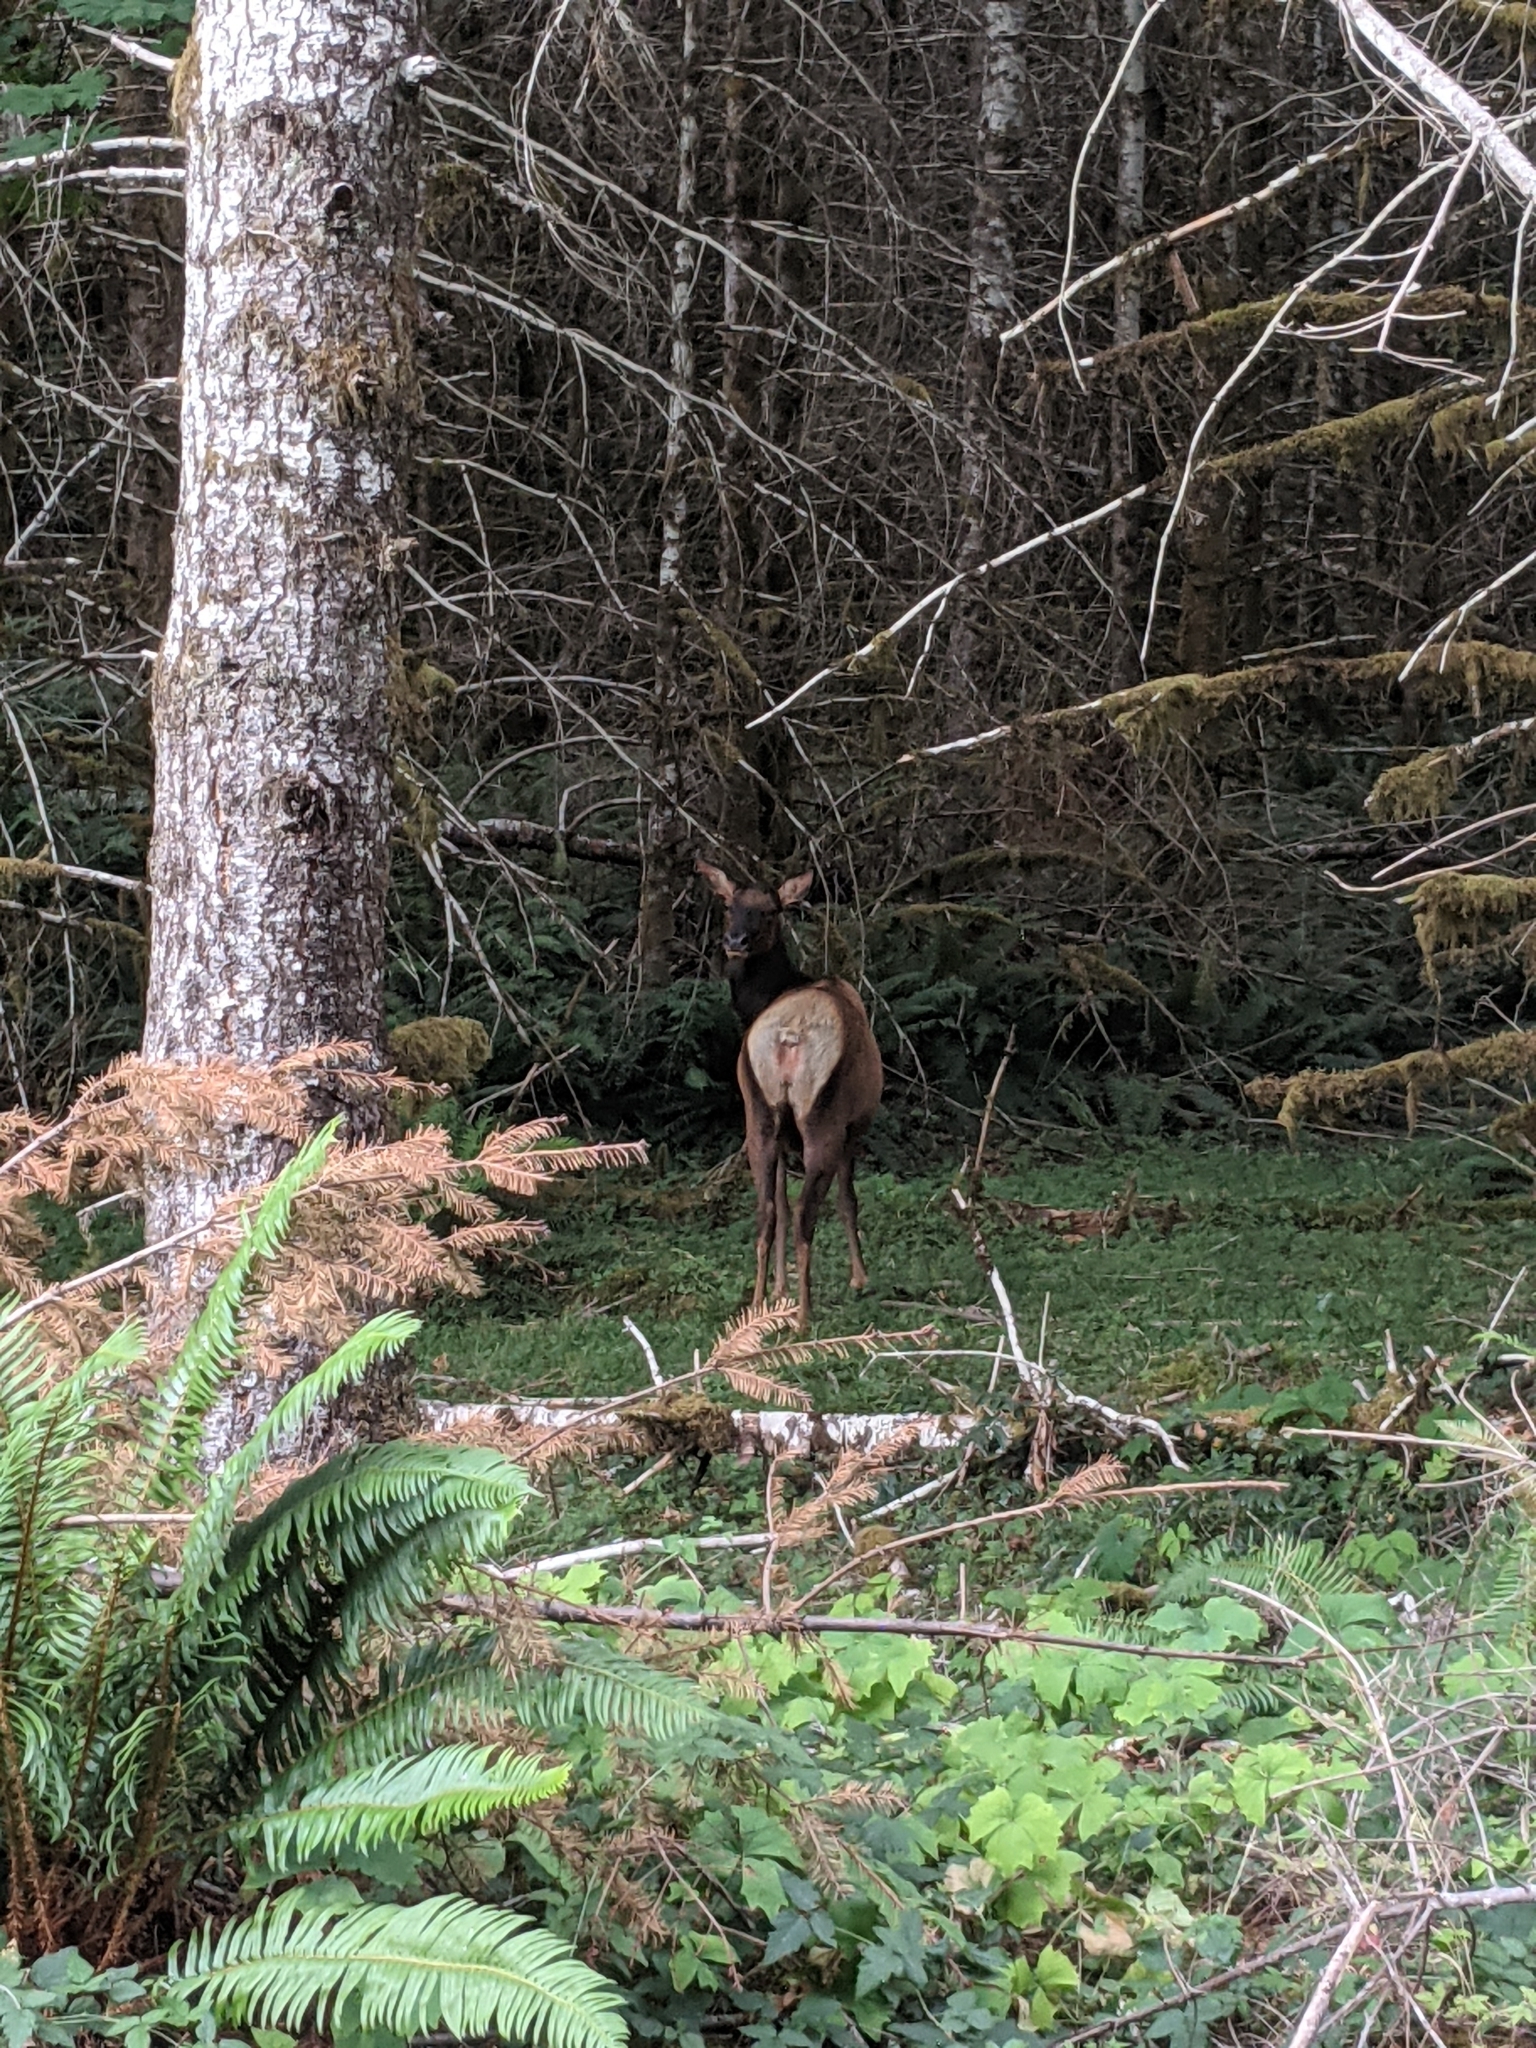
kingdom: Animalia
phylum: Chordata
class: Mammalia
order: Artiodactyla
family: Cervidae
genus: Cervus
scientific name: Cervus elaphus
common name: Red deer
